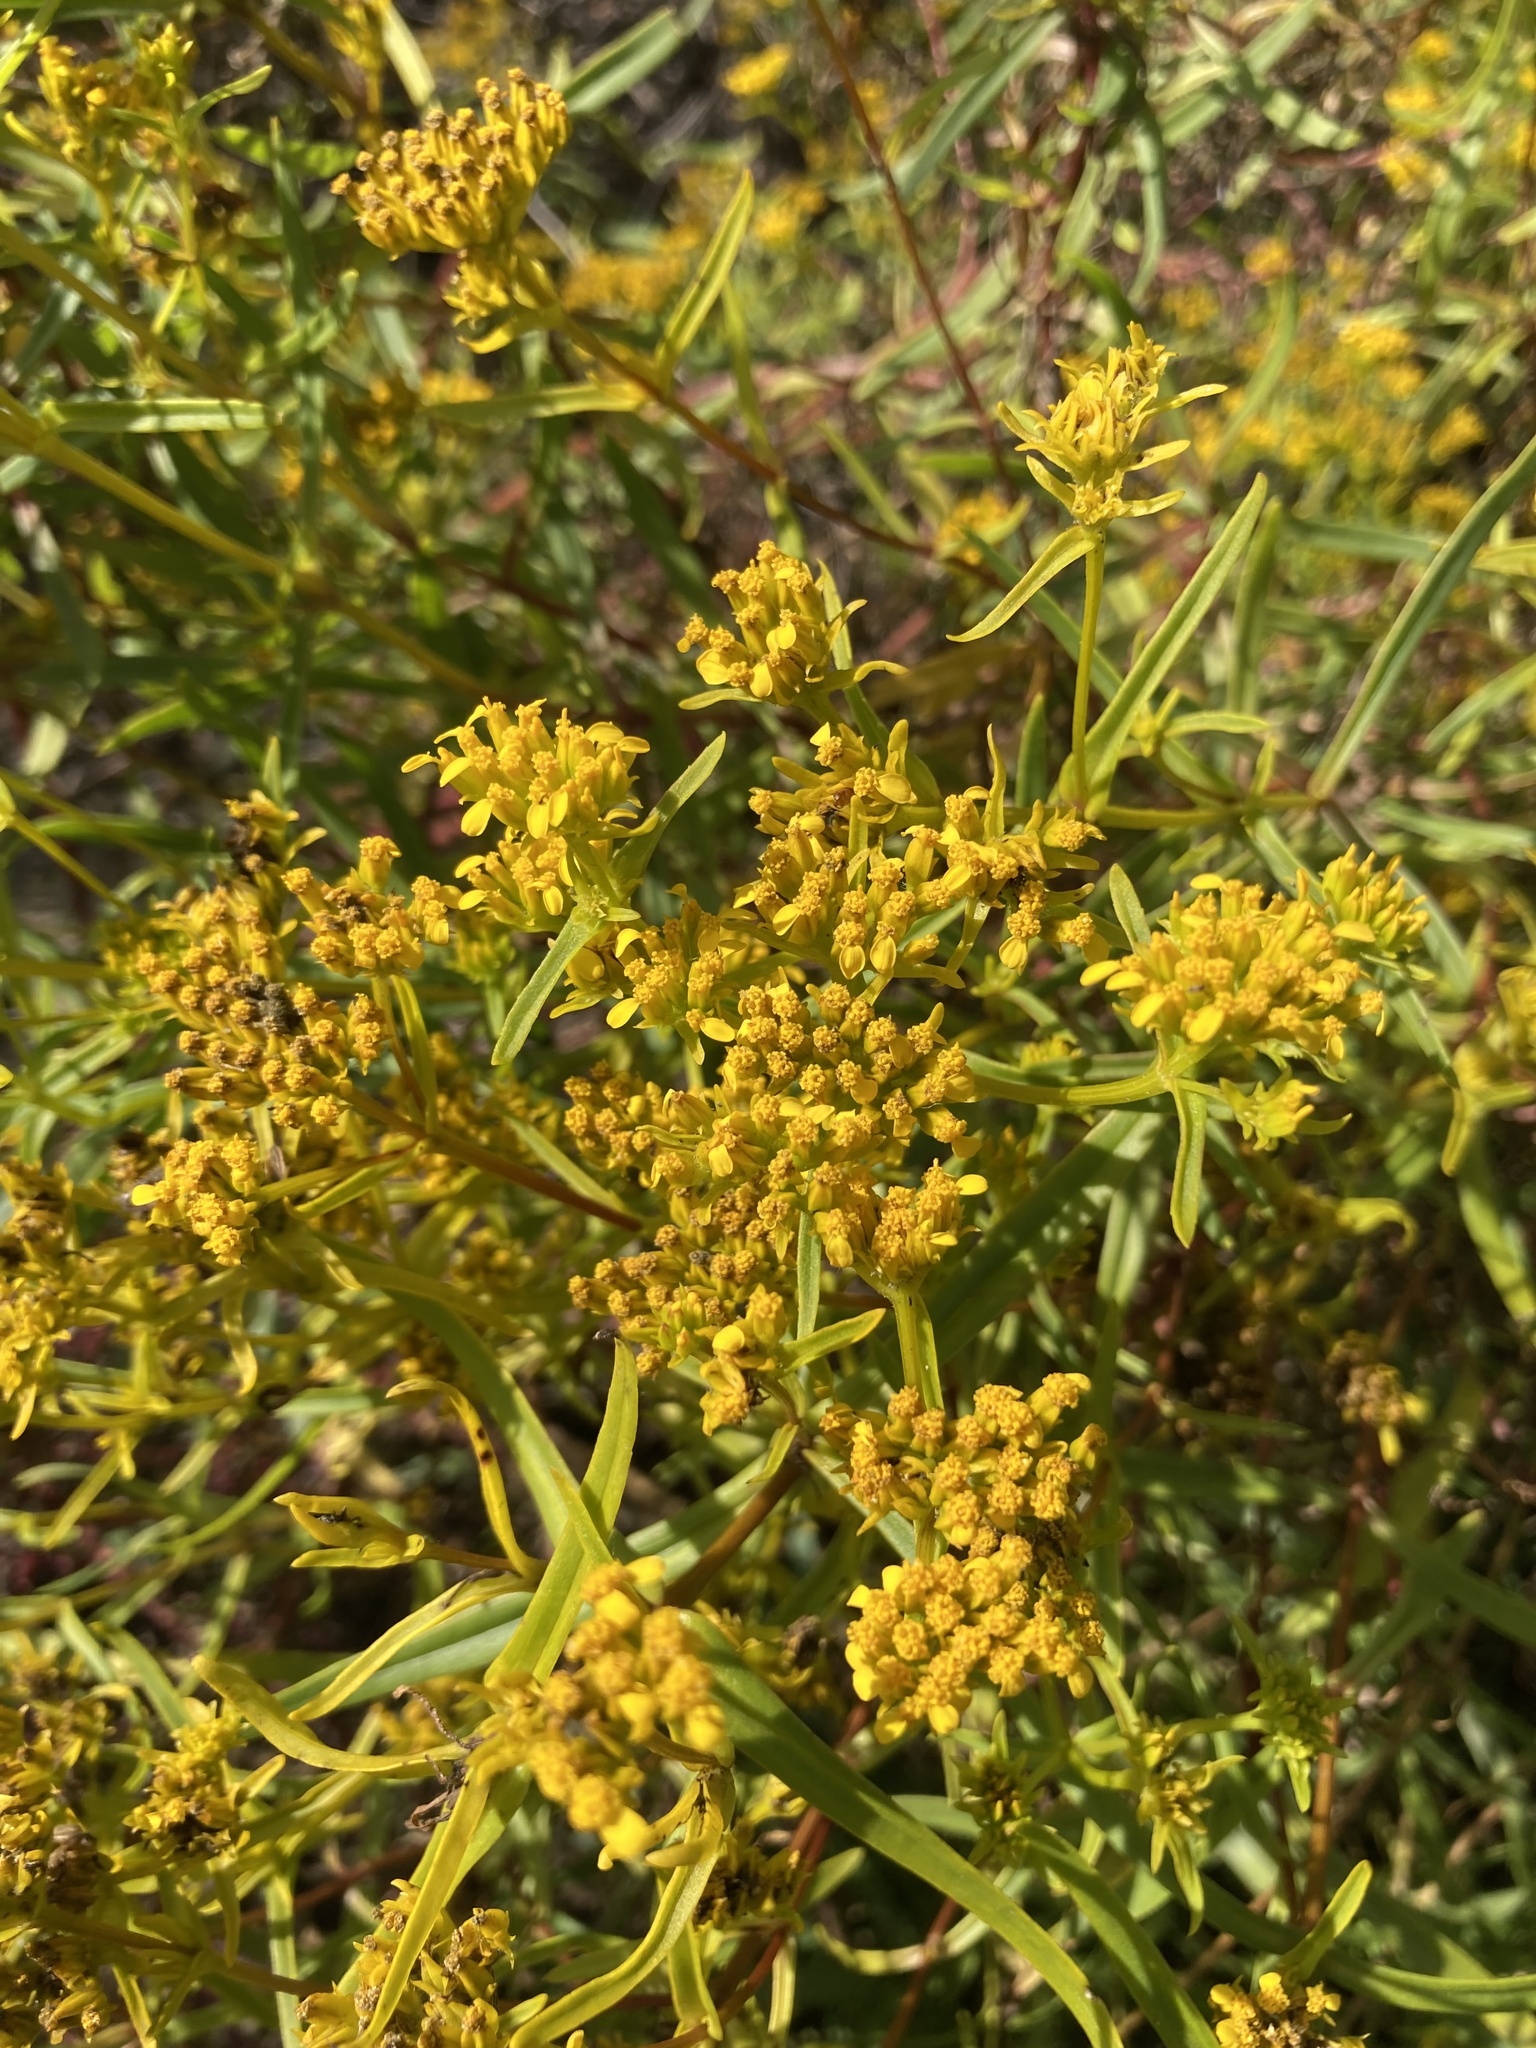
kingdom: Plantae
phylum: Tracheophyta
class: Magnoliopsida
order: Asterales
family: Asteraceae
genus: Flaveria
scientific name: Flaveria floridana
